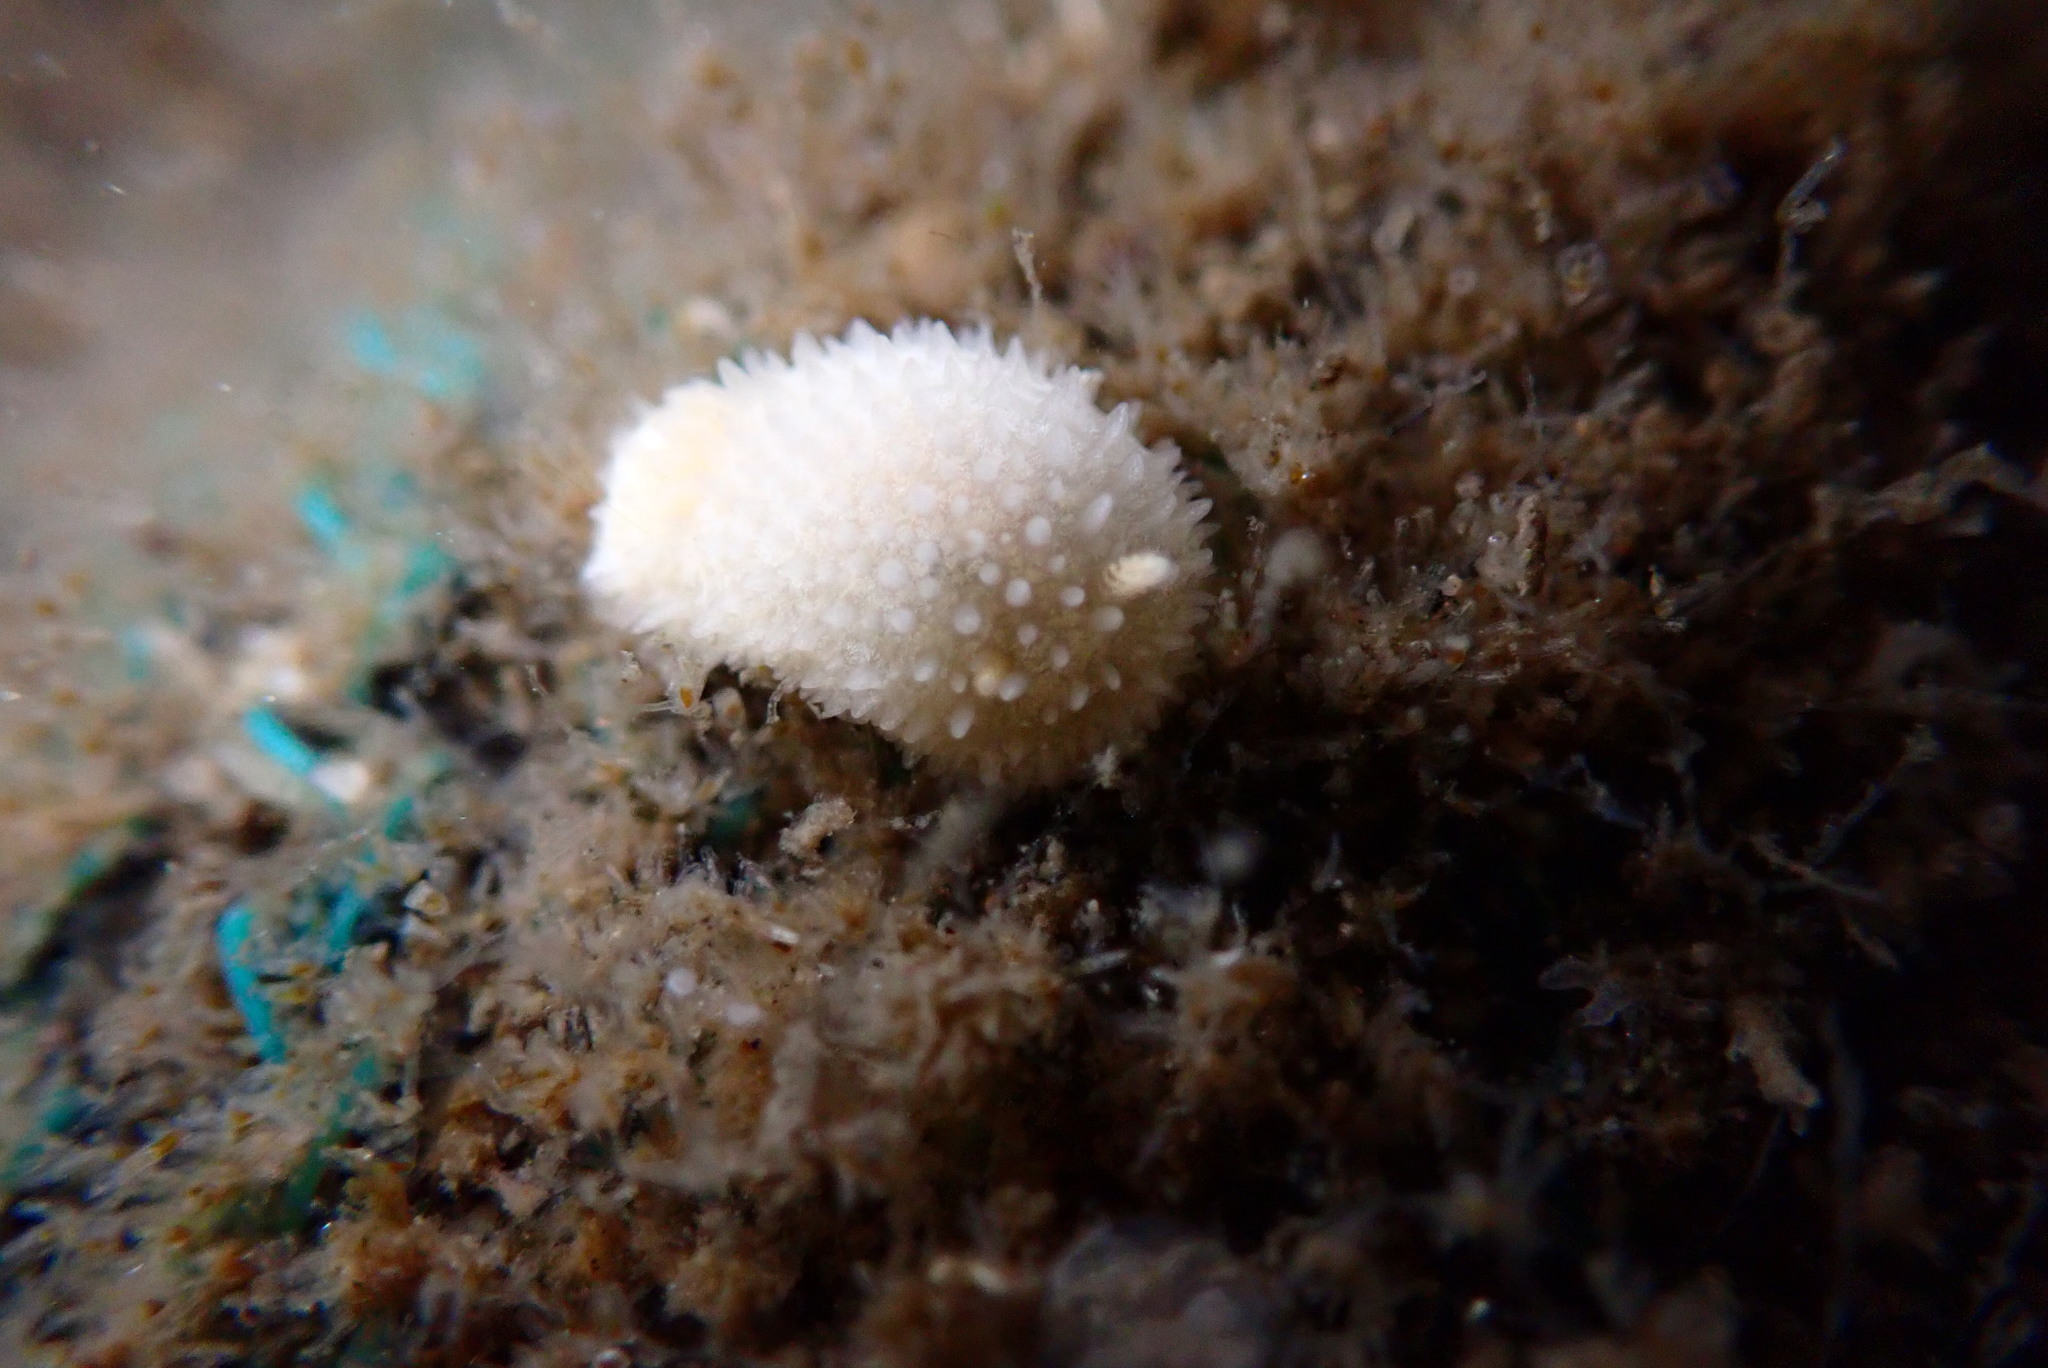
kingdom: Animalia
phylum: Mollusca
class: Gastropoda
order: Nudibranchia
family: Calycidorididae
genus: Diaphorodoris
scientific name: Diaphorodoris lirulatocauda
